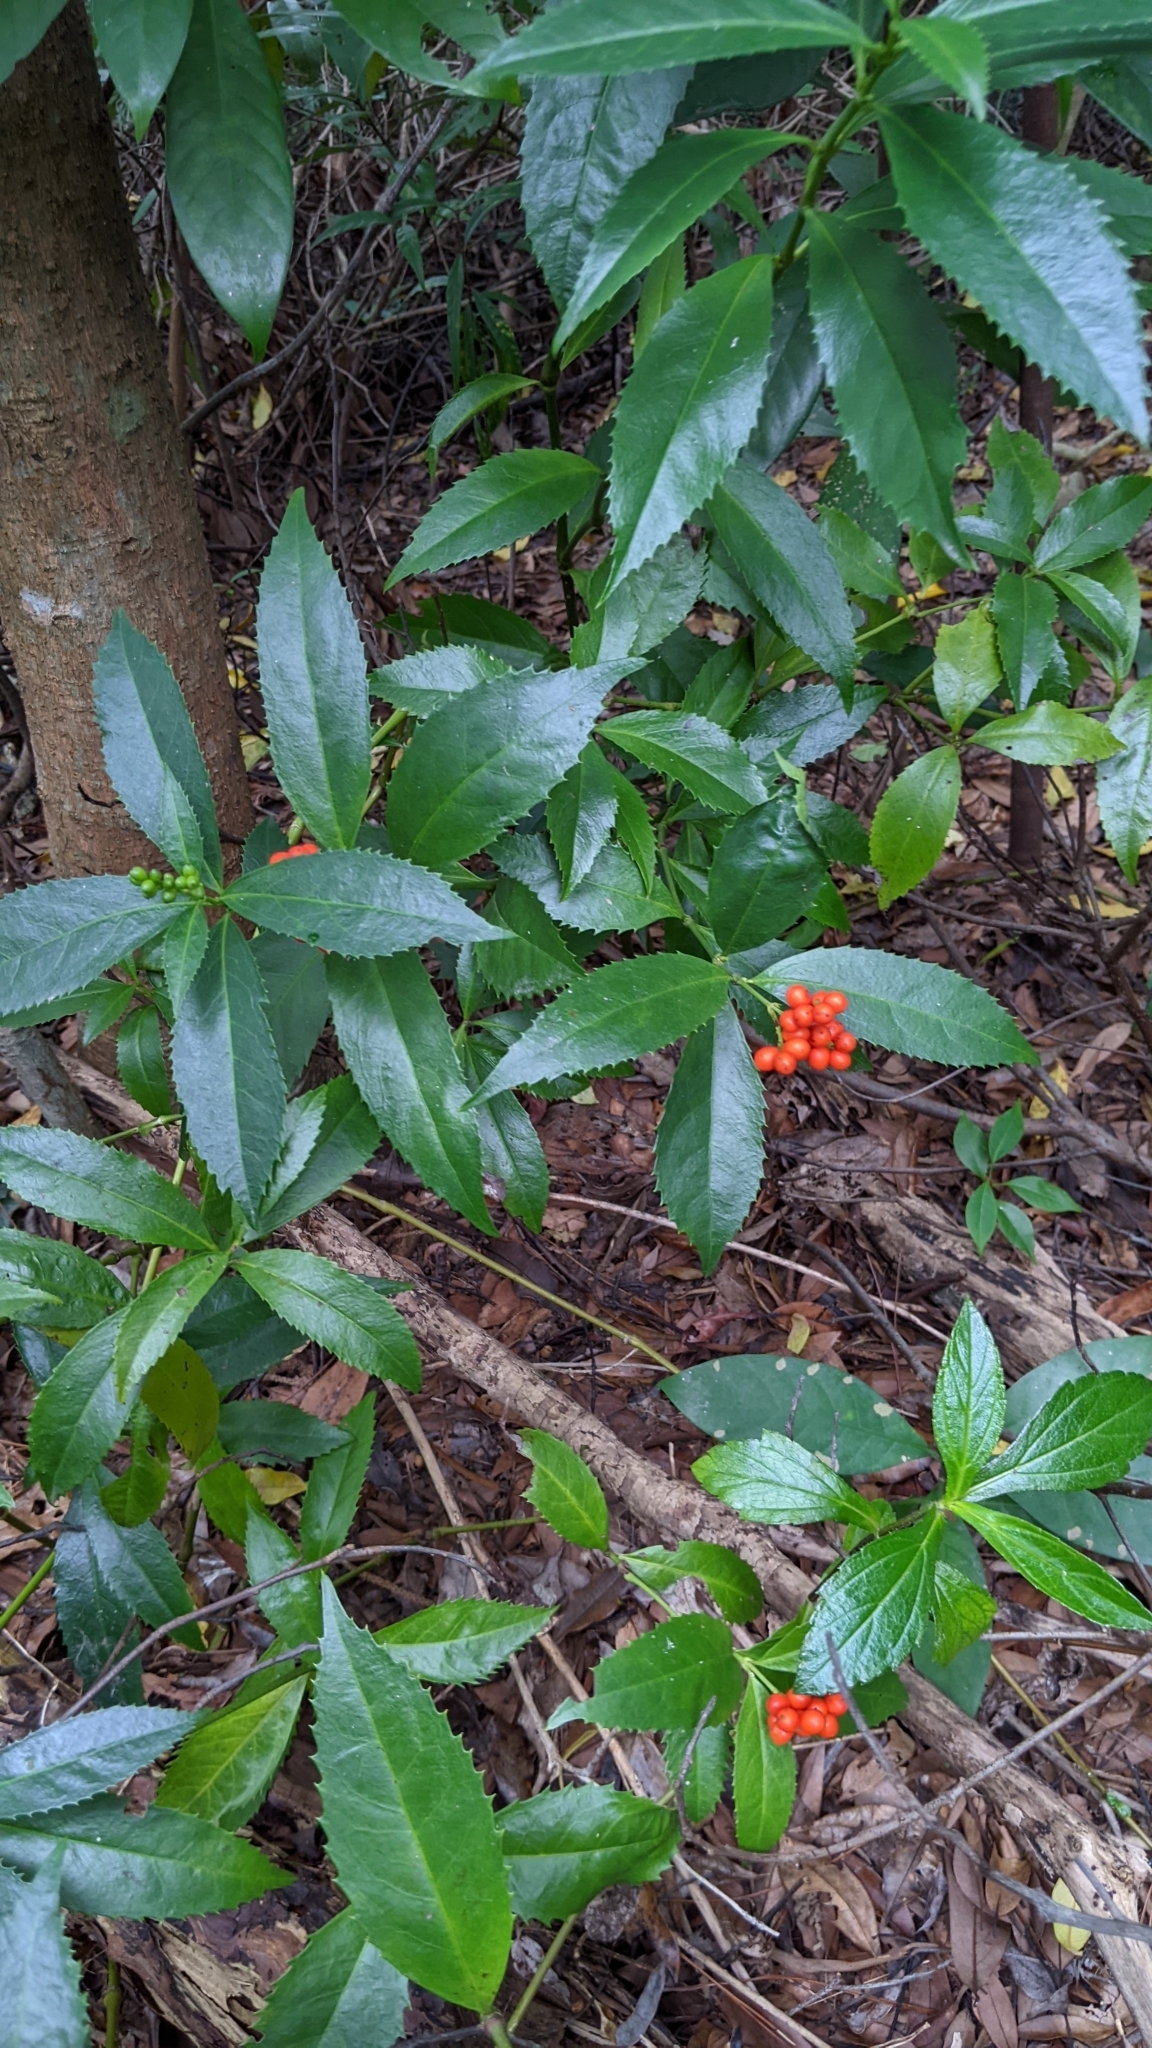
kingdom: Plantae
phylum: Tracheophyta
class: Magnoliopsida
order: Chloranthales
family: Chloranthaceae
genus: Sarcandra
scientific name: Sarcandra glabra
